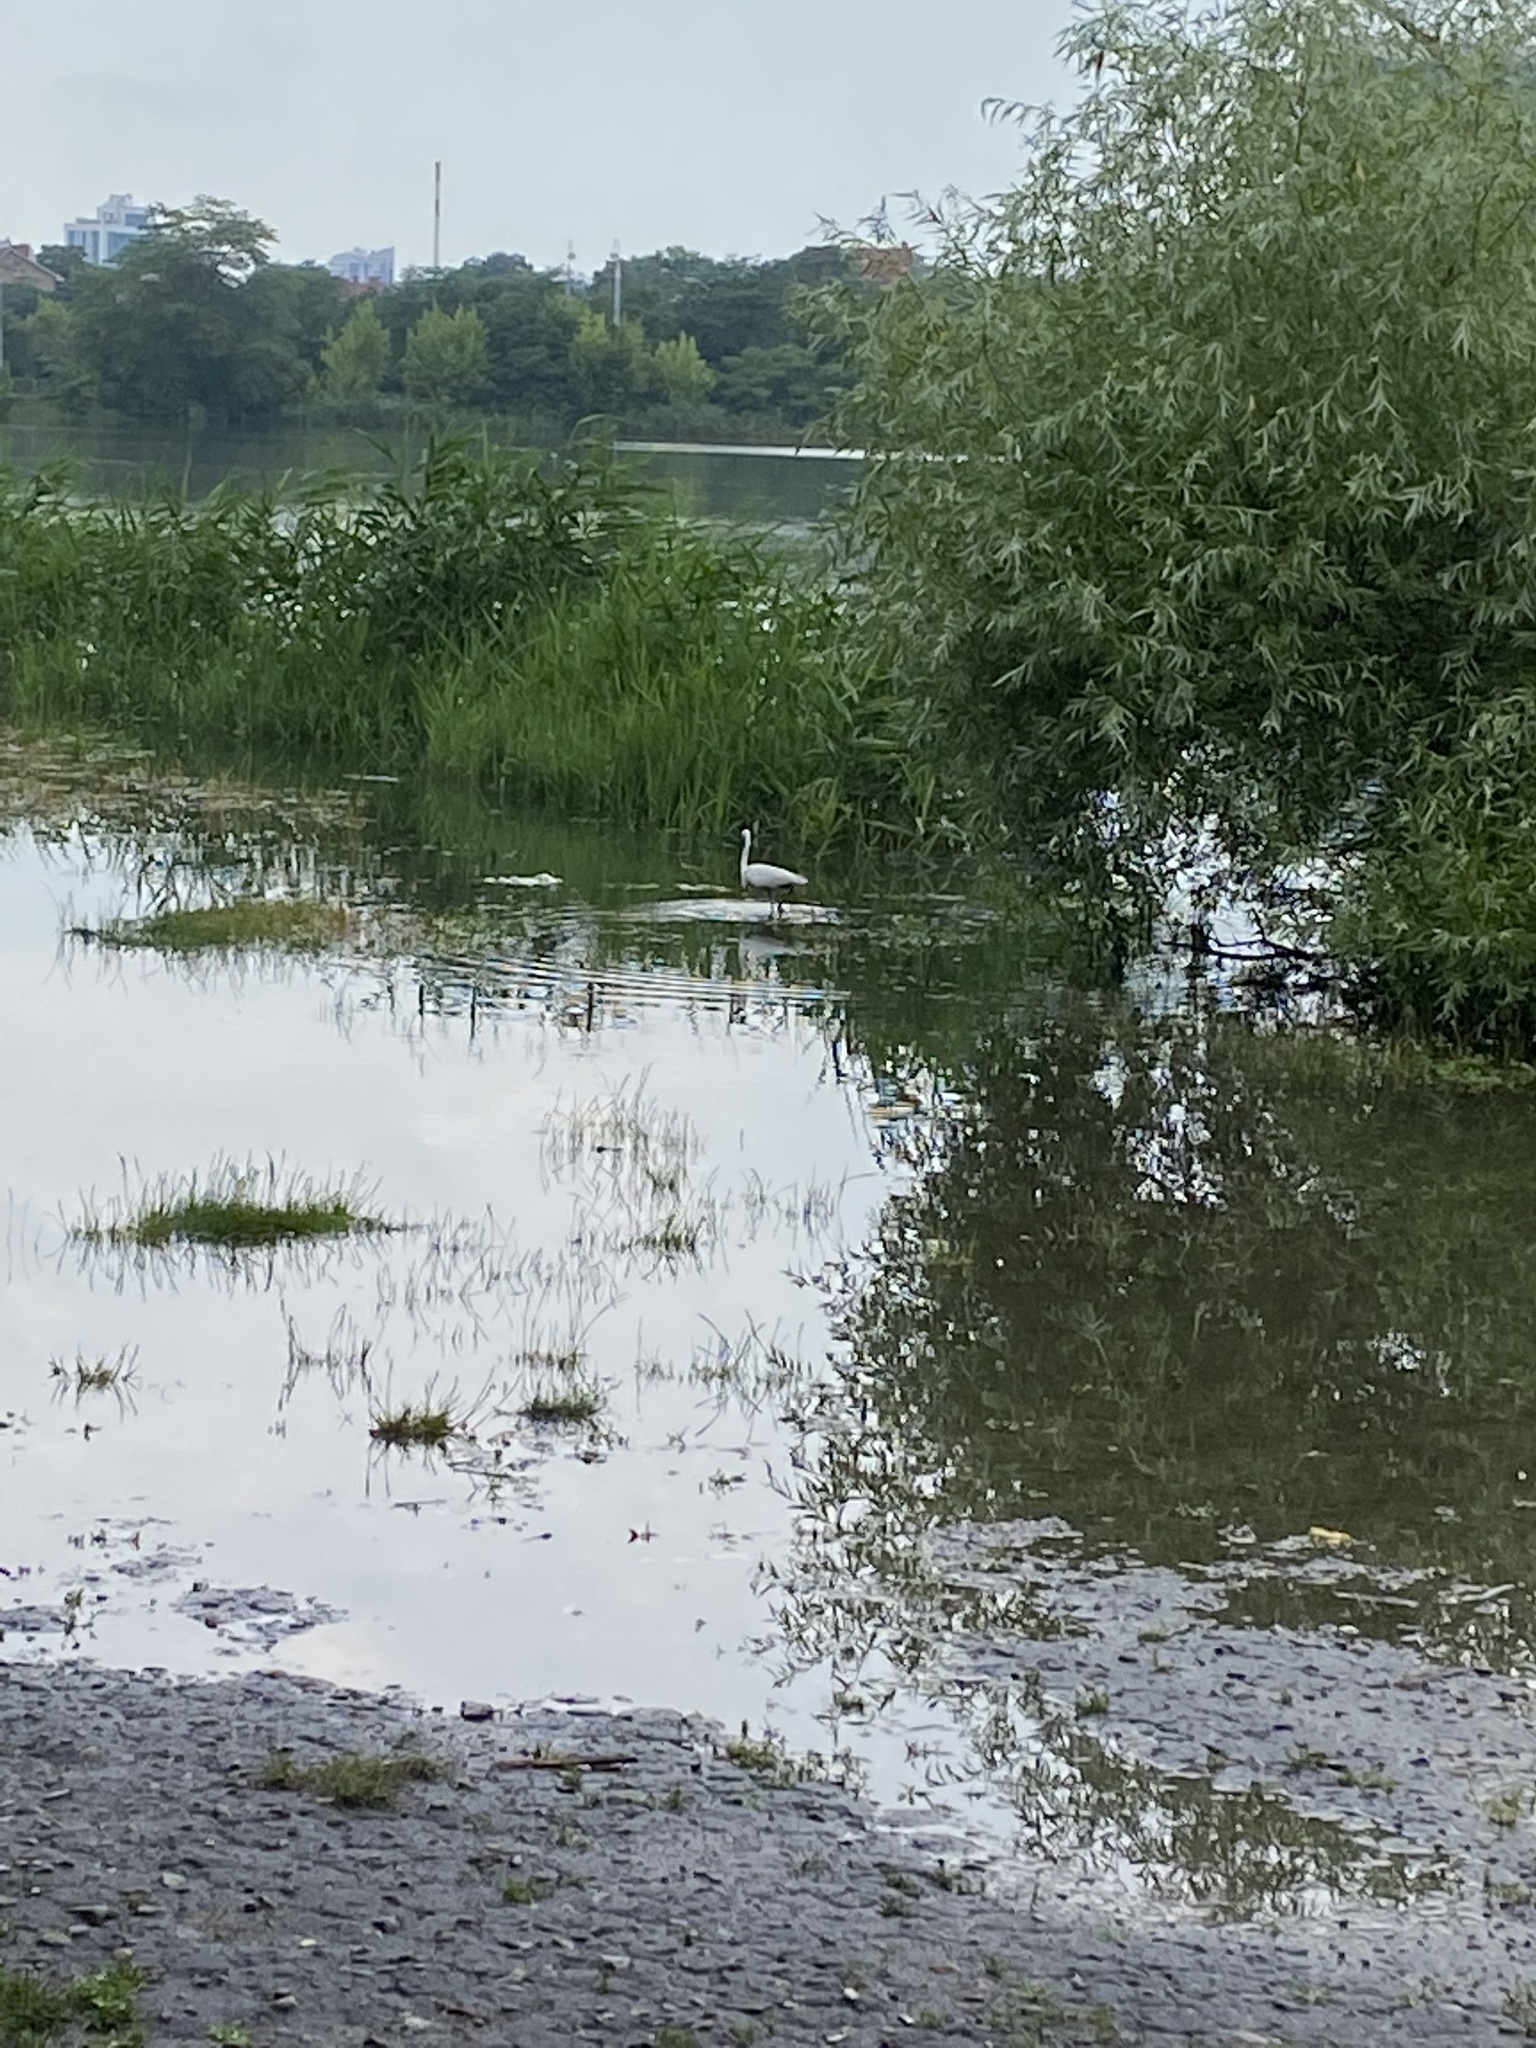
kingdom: Animalia
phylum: Chordata
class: Aves
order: Pelecaniformes
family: Ardeidae
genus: Egretta
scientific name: Egretta garzetta
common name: Little egret
